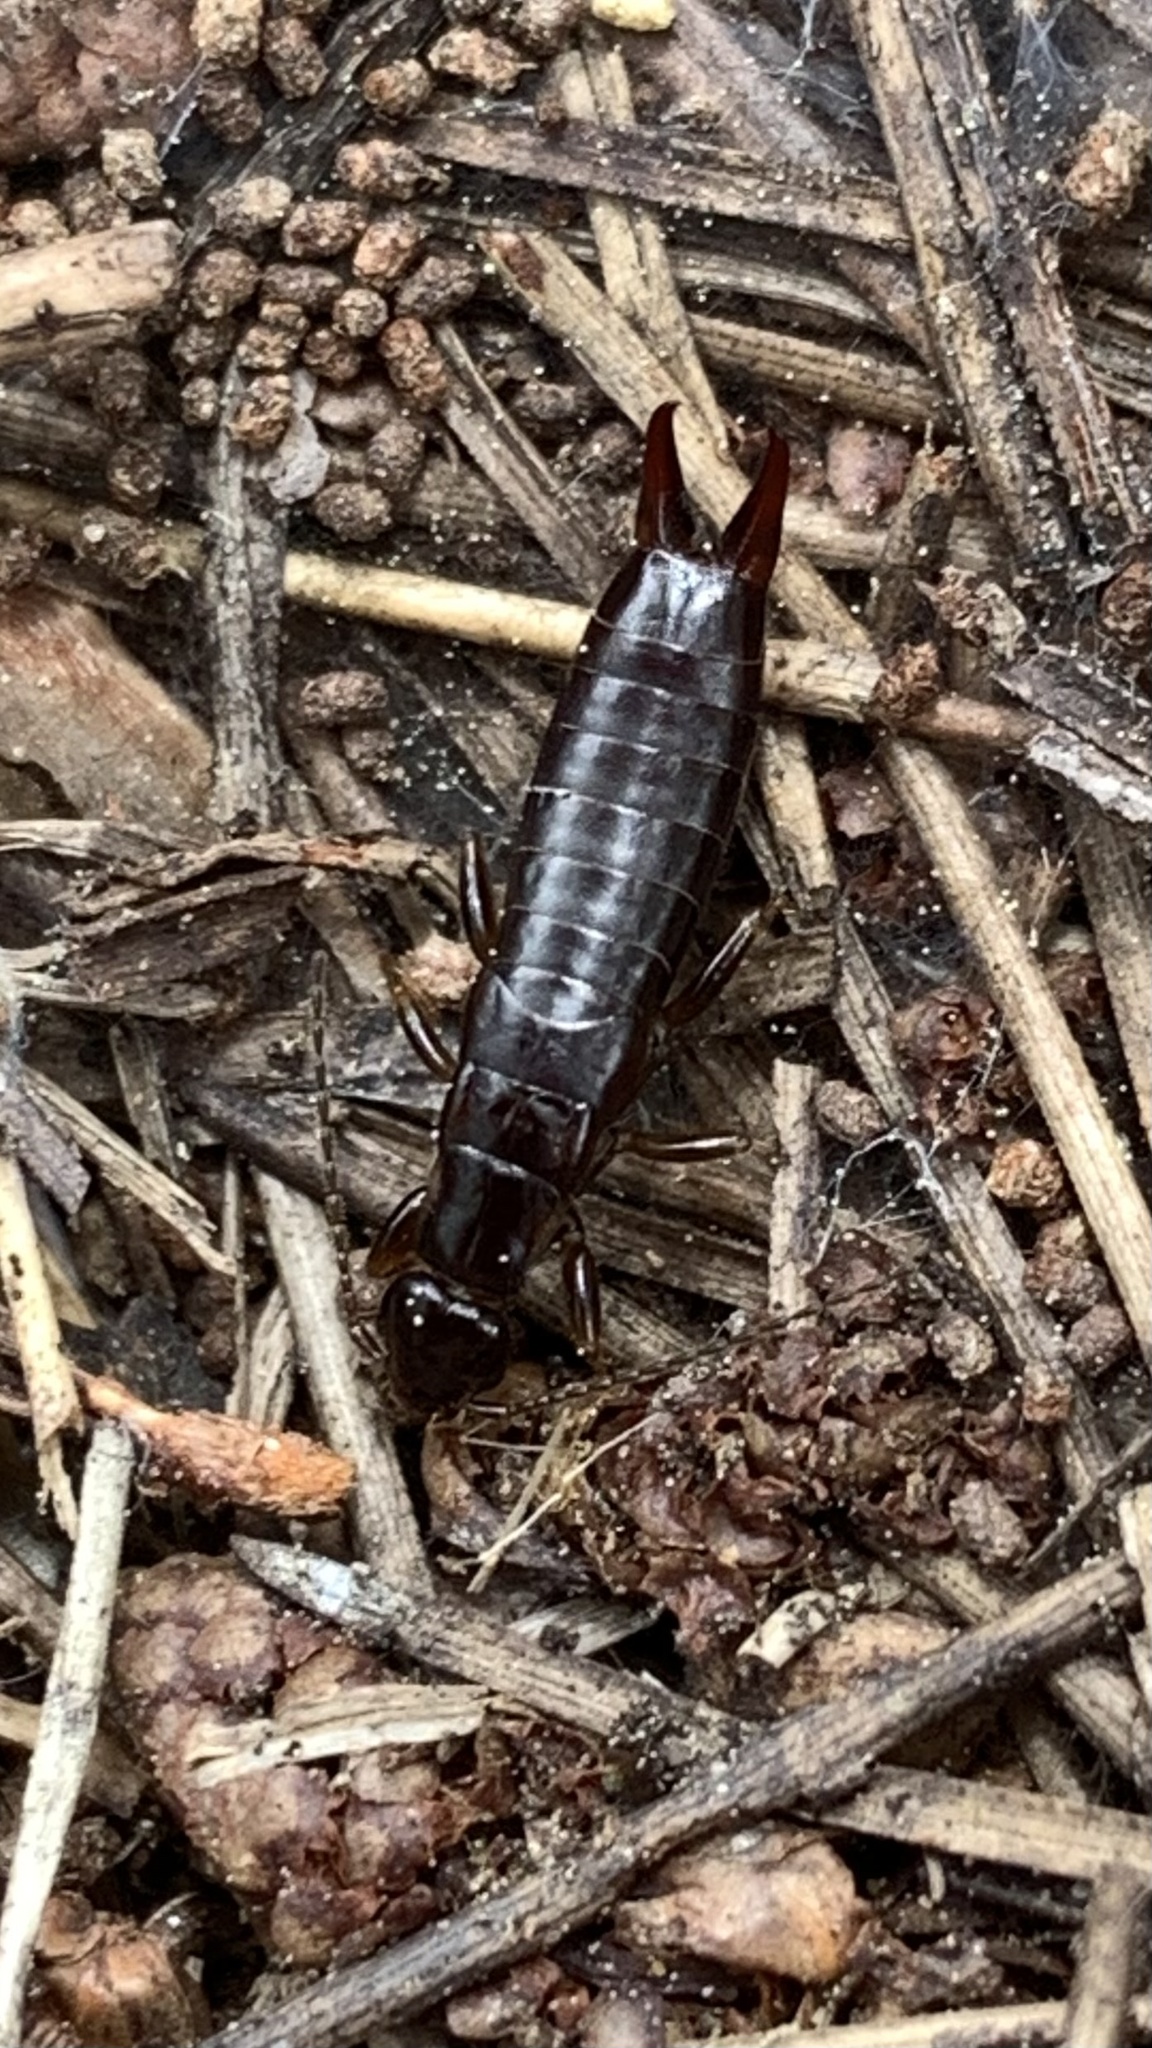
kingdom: Animalia
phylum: Arthropoda
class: Insecta
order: Dermaptera
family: Anisolabididae
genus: Euborellia
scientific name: Euborellia moesta
